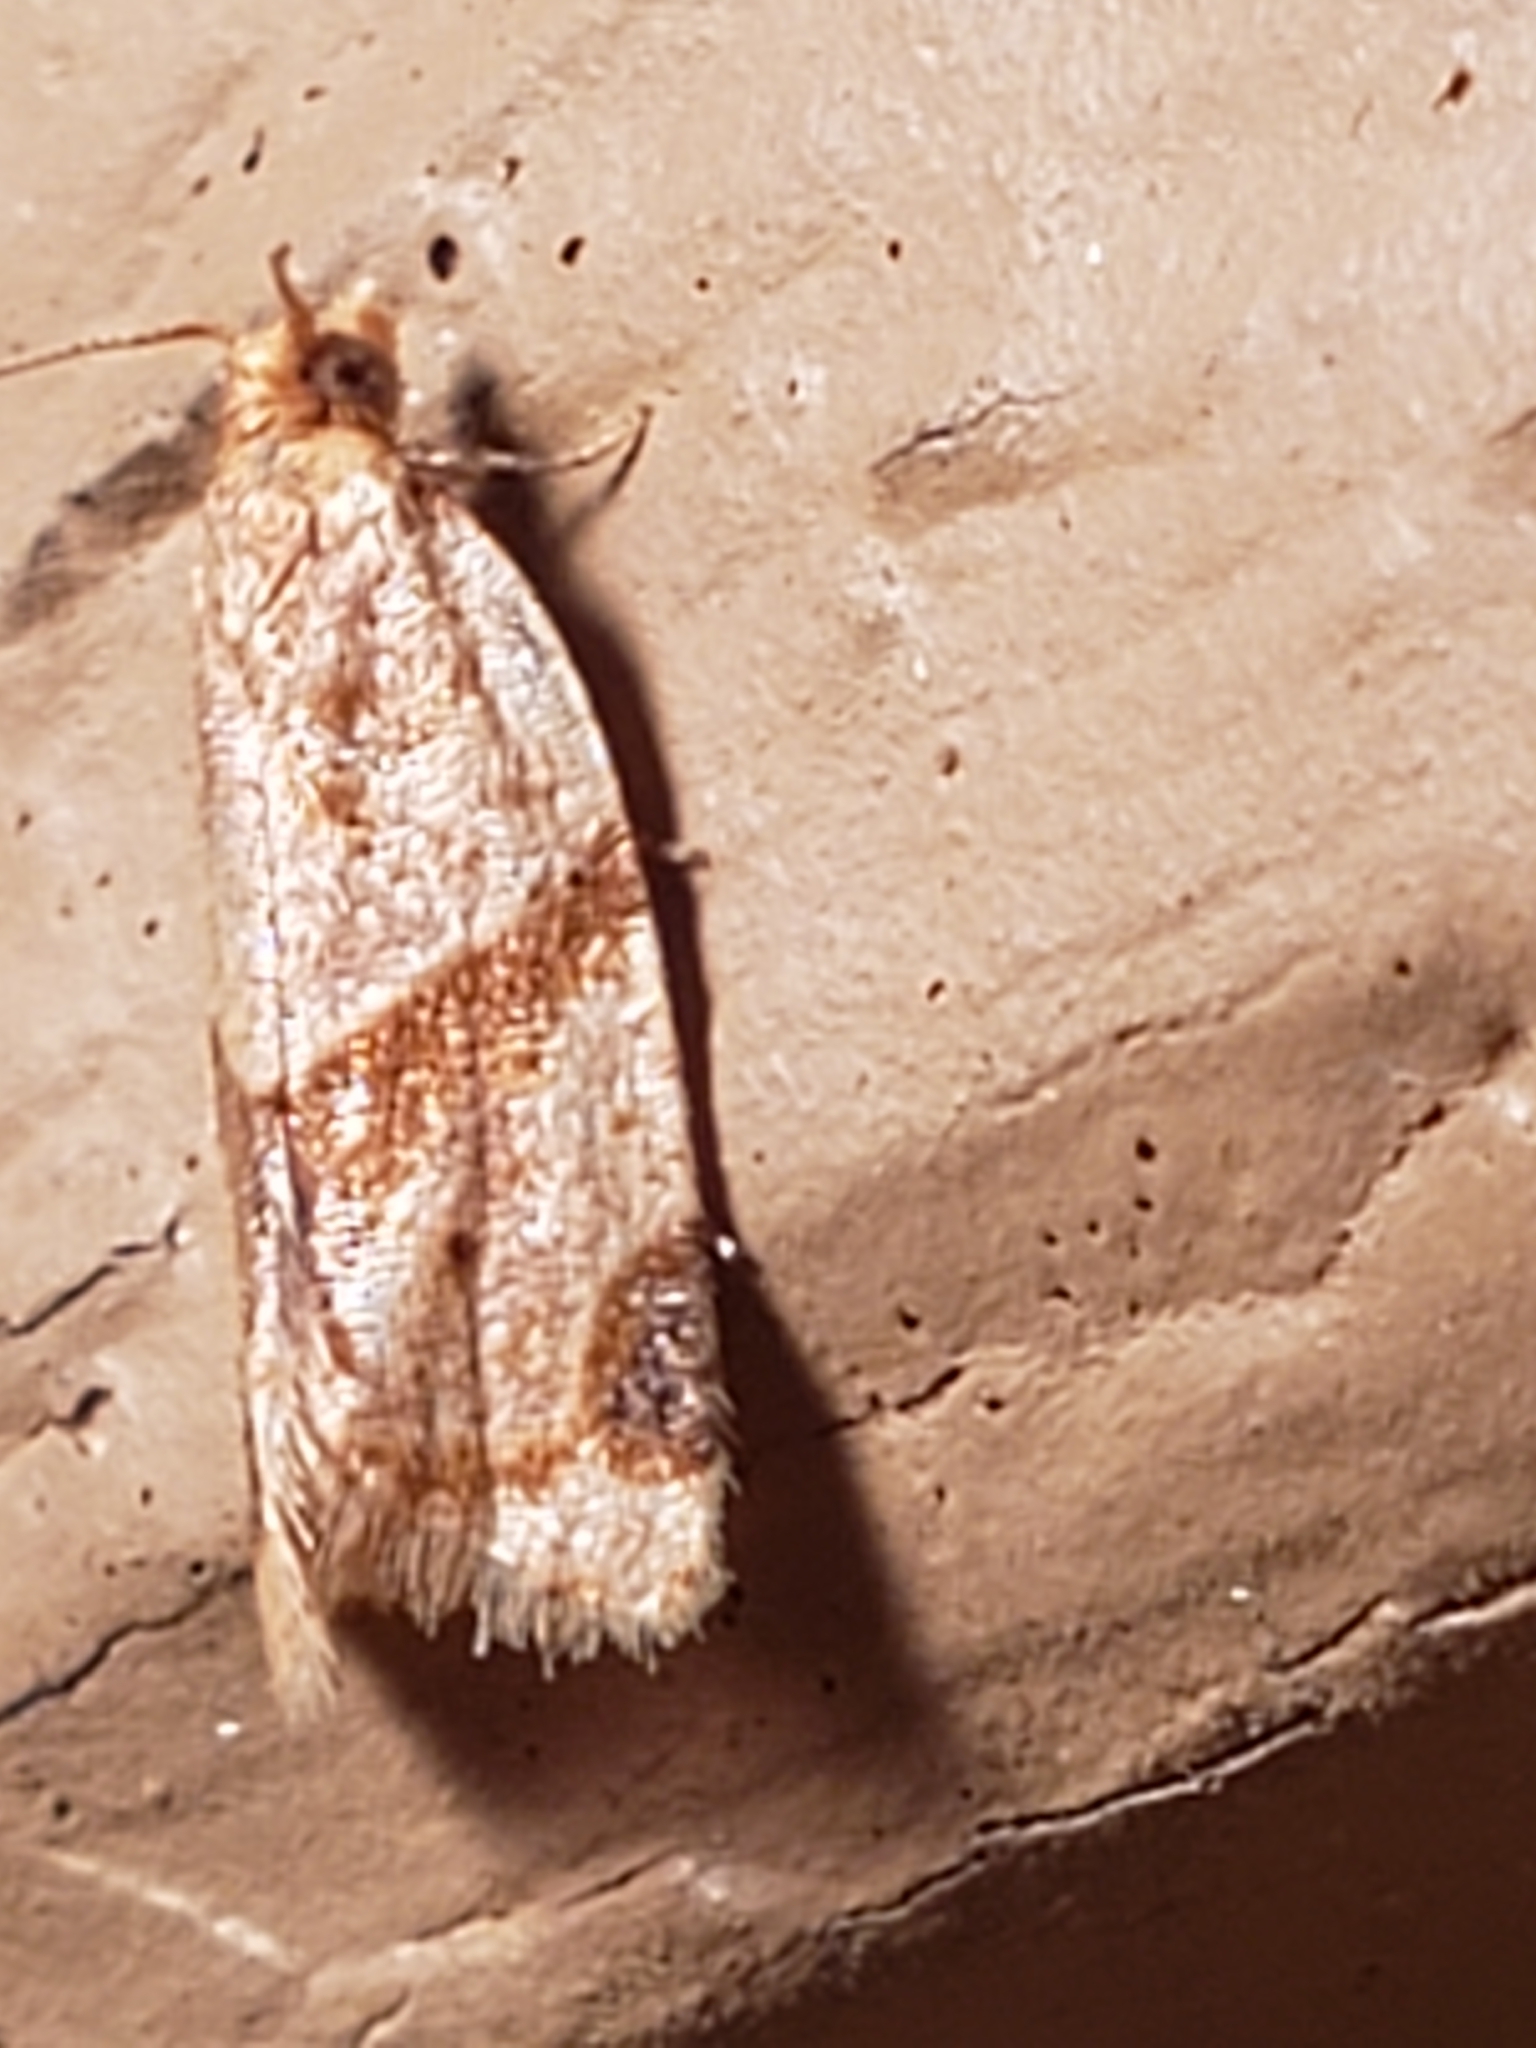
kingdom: Animalia
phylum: Arthropoda
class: Insecta
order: Lepidoptera
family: Tortricidae
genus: Clepsis
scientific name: Clepsis peritana
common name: Garden tortrix
